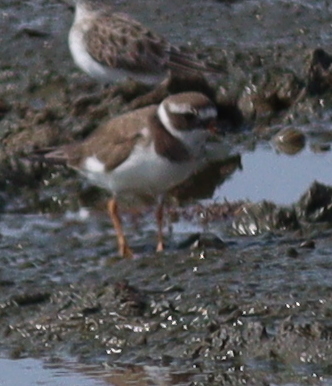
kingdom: Animalia
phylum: Chordata
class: Aves
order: Charadriiformes
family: Charadriidae
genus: Charadrius
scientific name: Charadrius hiaticula
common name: Common ringed plover
